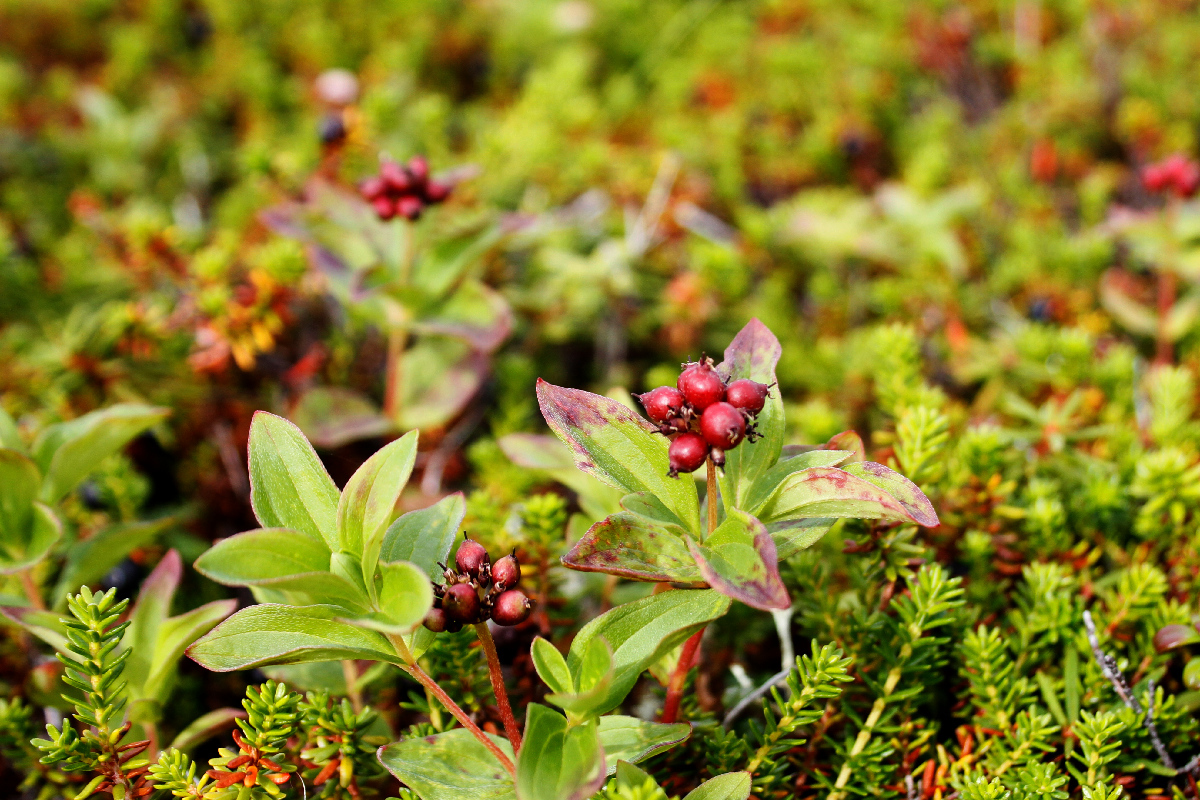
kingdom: Plantae
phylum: Tracheophyta
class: Magnoliopsida
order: Cornales
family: Cornaceae
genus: Cornus
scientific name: Cornus suecica
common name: Dwarf cornel
